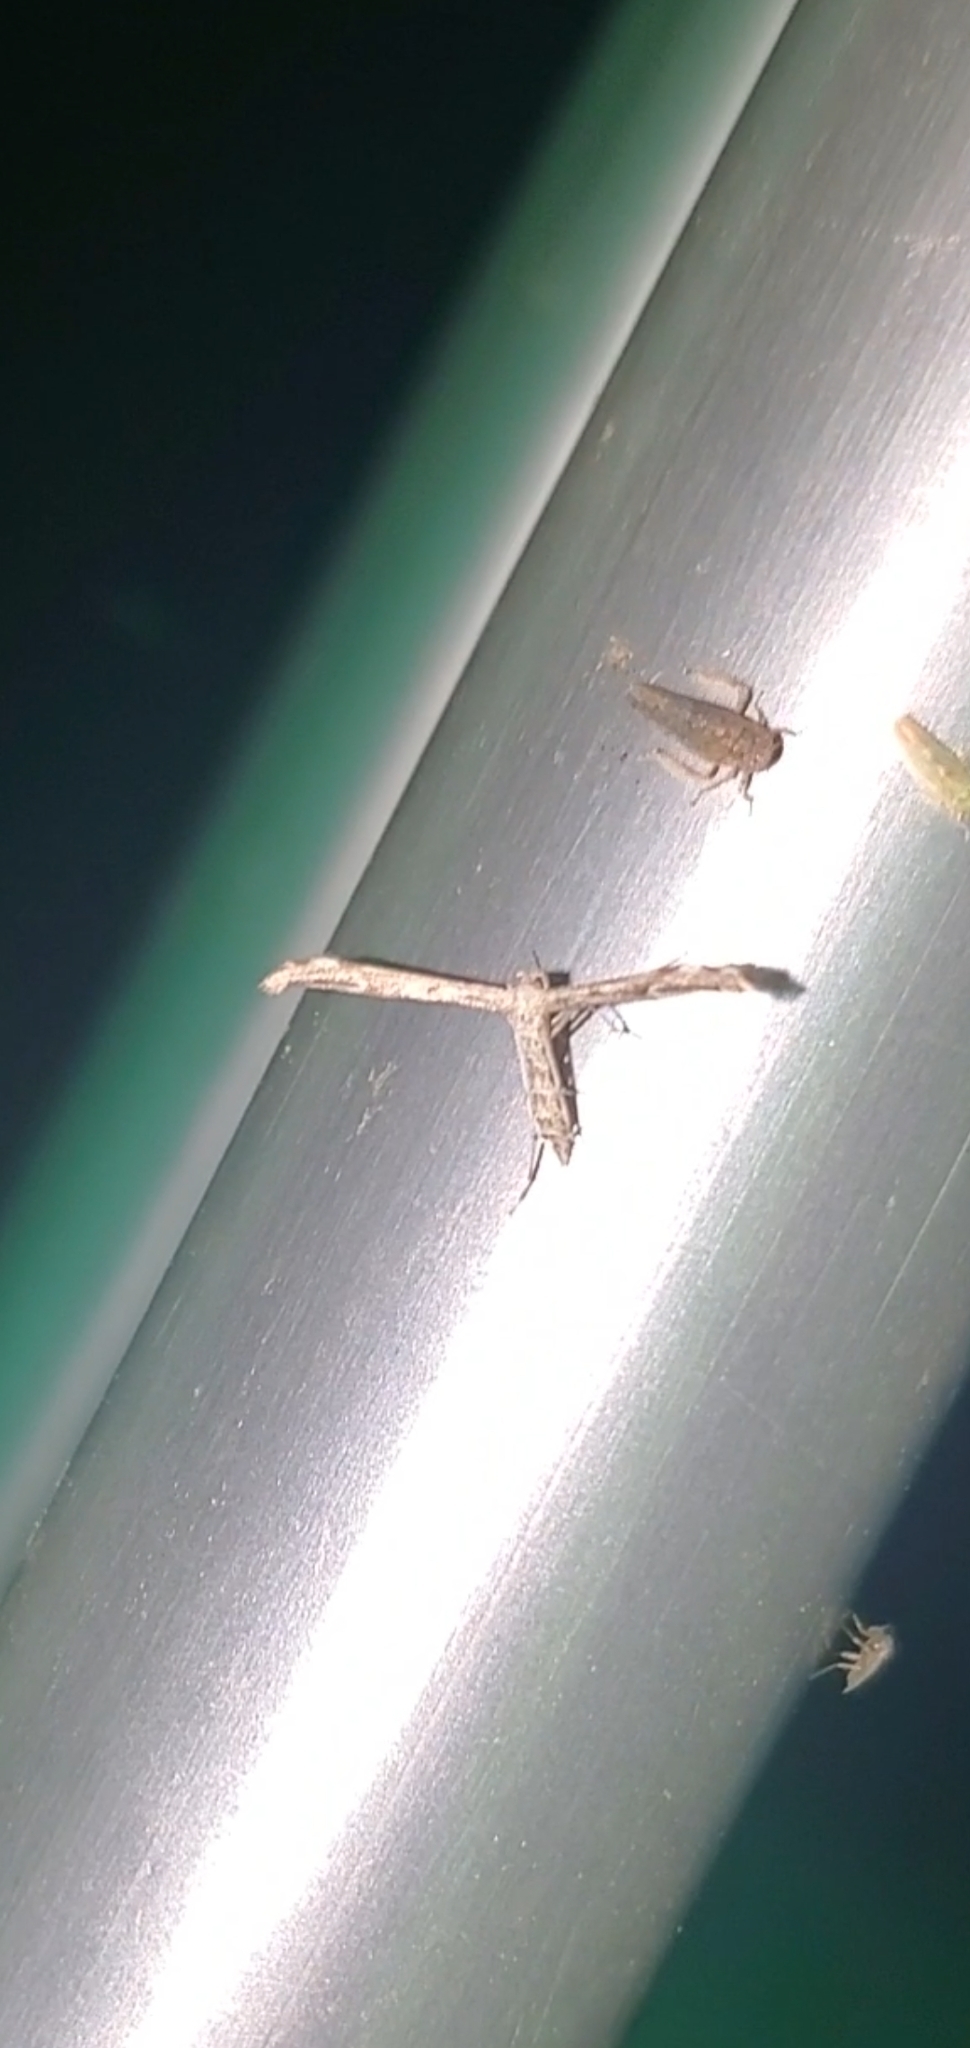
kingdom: Animalia
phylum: Arthropoda
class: Insecta
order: Lepidoptera
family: Pterophoridae
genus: Hellinsia
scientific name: Hellinsia inquinatus
